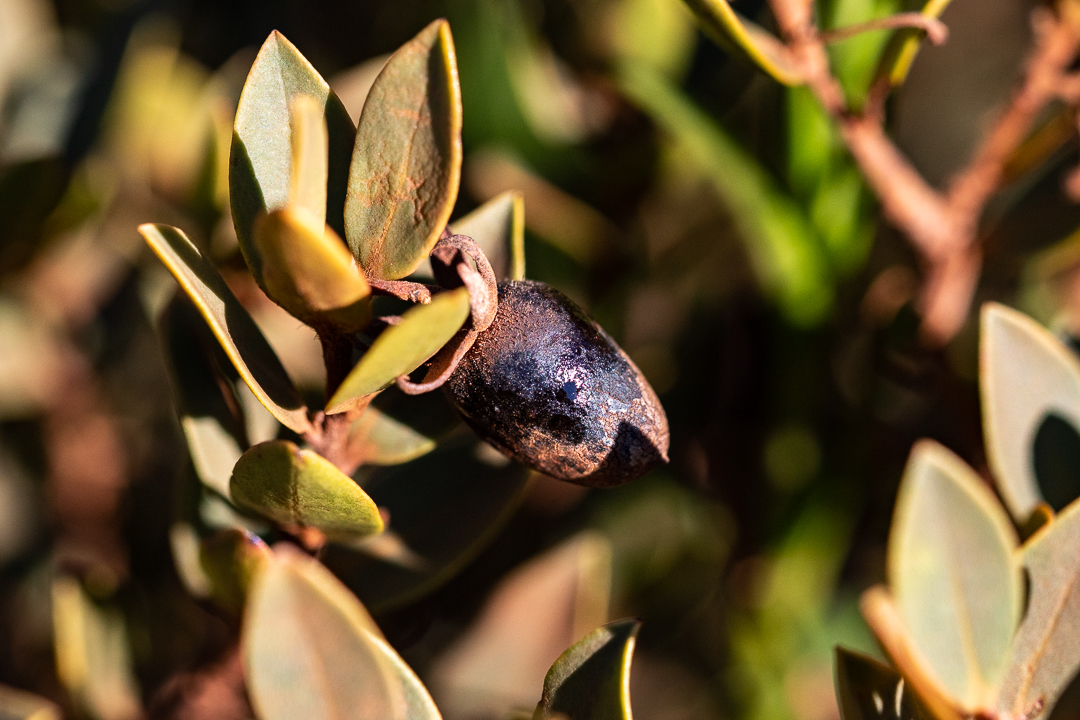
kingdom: Plantae
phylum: Tracheophyta
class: Magnoliopsida
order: Ericales
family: Ebenaceae
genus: Diospyros
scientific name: Diospyros glabra
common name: Fynbos star apple
